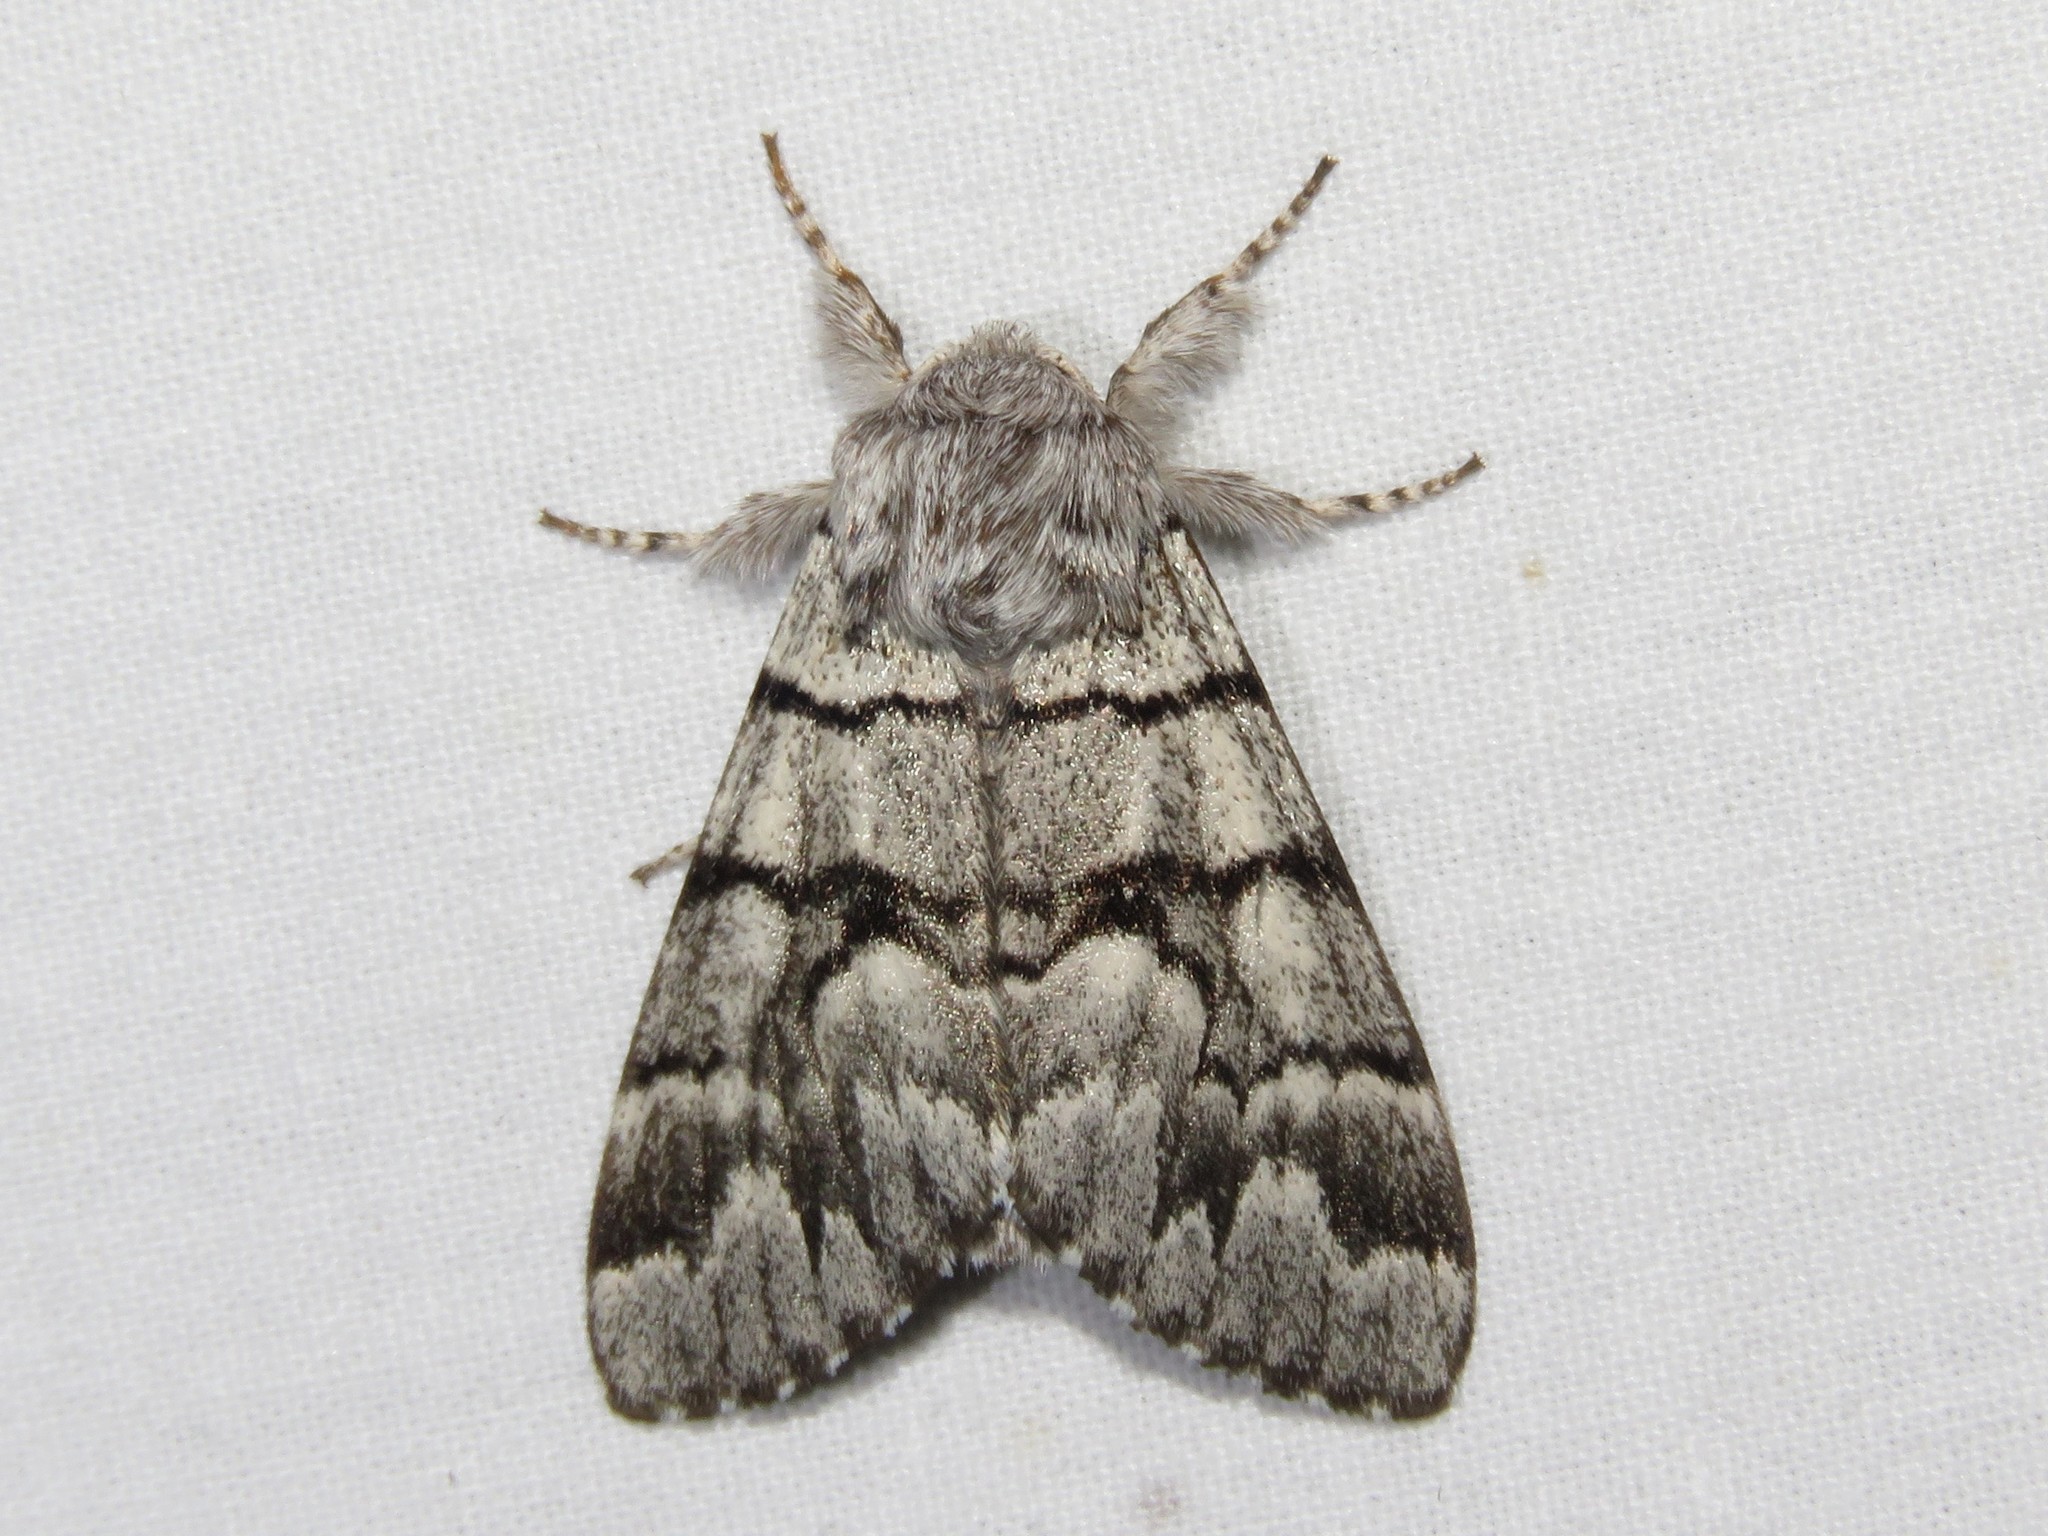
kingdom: Animalia
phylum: Arthropoda
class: Insecta
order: Lepidoptera
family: Noctuidae
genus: Panthea
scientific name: Panthea furcilla
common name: Eastern panthea moth
